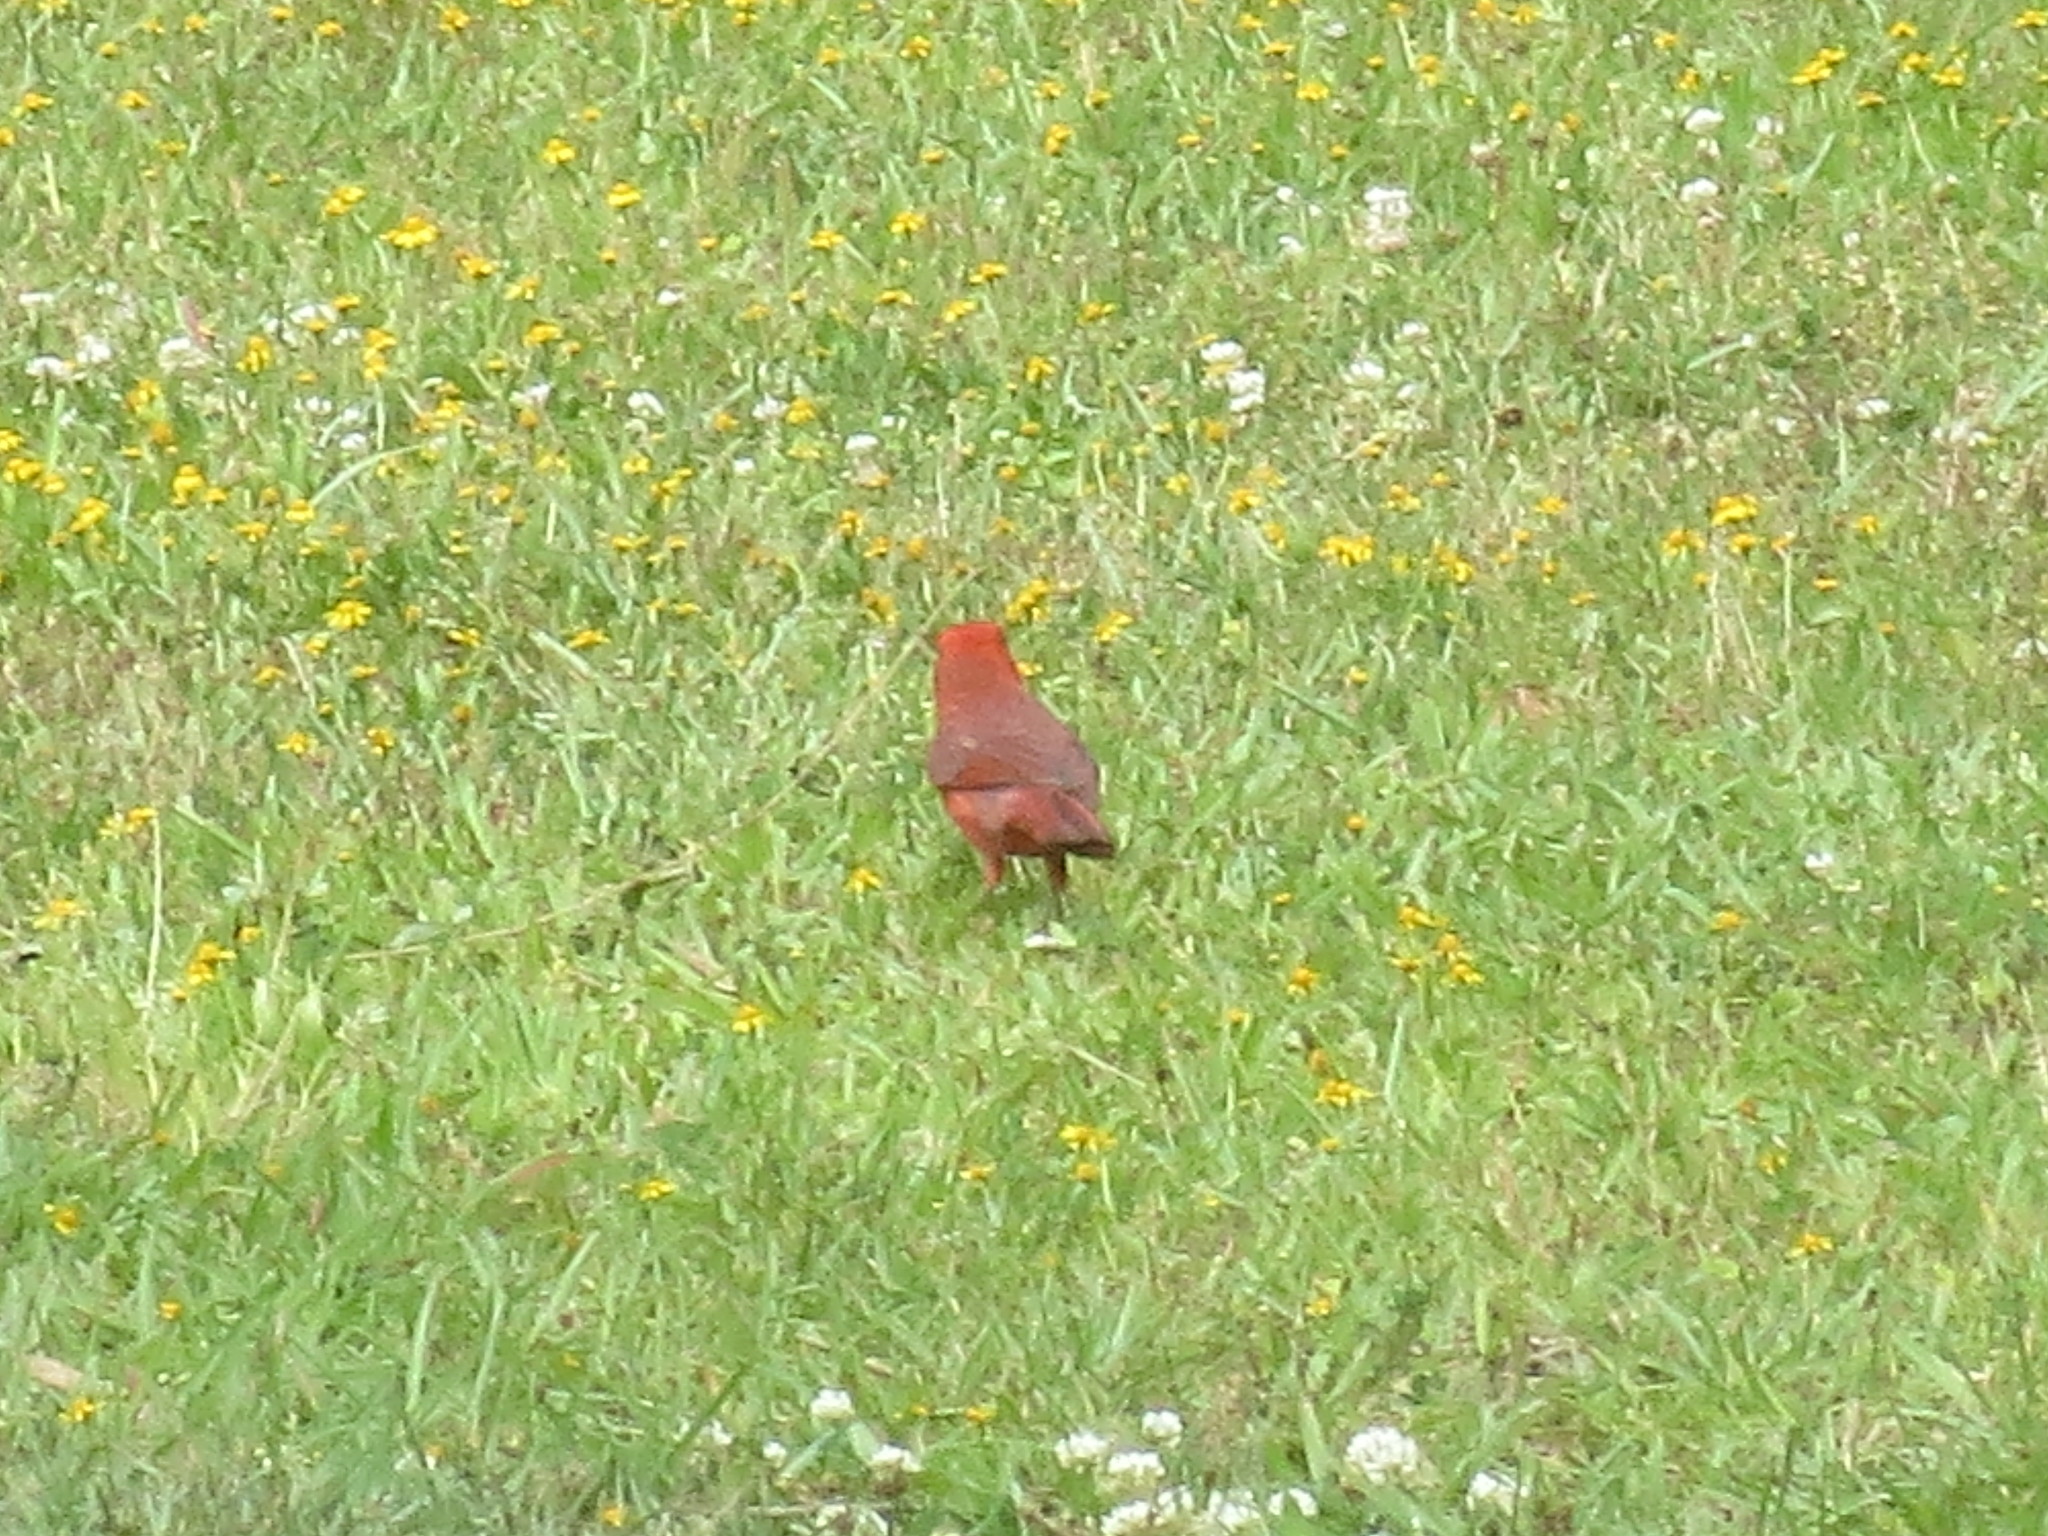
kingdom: Animalia
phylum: Chordata
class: Aves
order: Passeriformes
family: Cardinalidae
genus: Cardinalis
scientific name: Cardinalis cardinalis
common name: Northern cardinal
